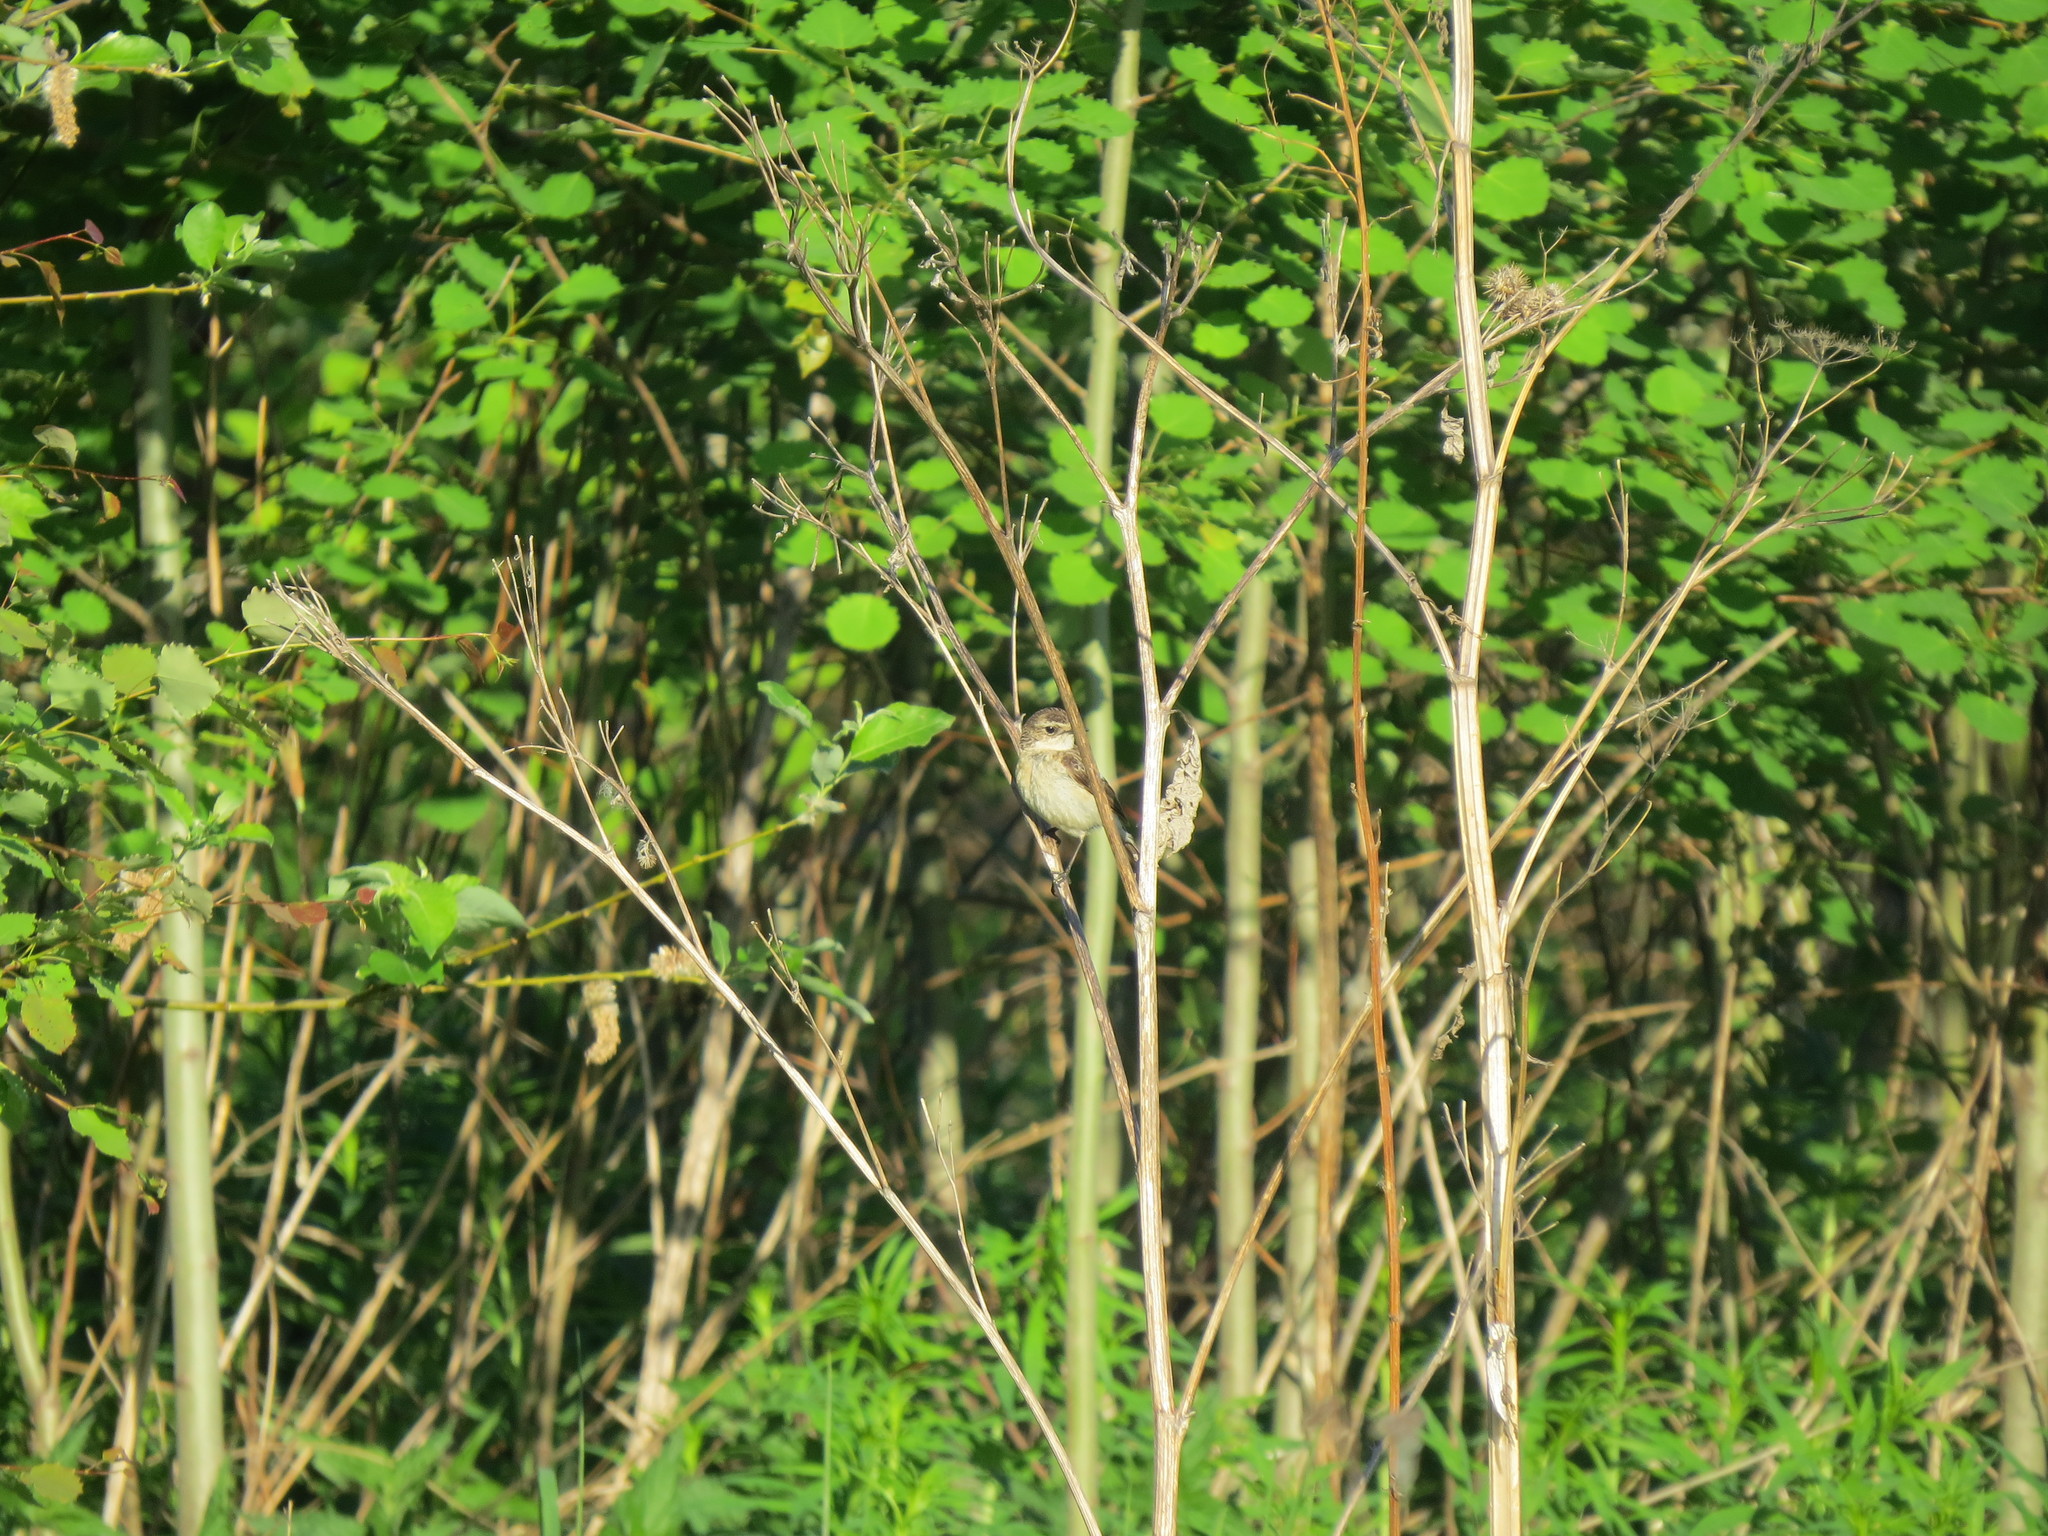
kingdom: Animalia
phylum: Chordata
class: Aves
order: Passeriformes
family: Muscicapidae
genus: Saxicola
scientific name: Saxicola maurus
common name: Siberian stonechat
